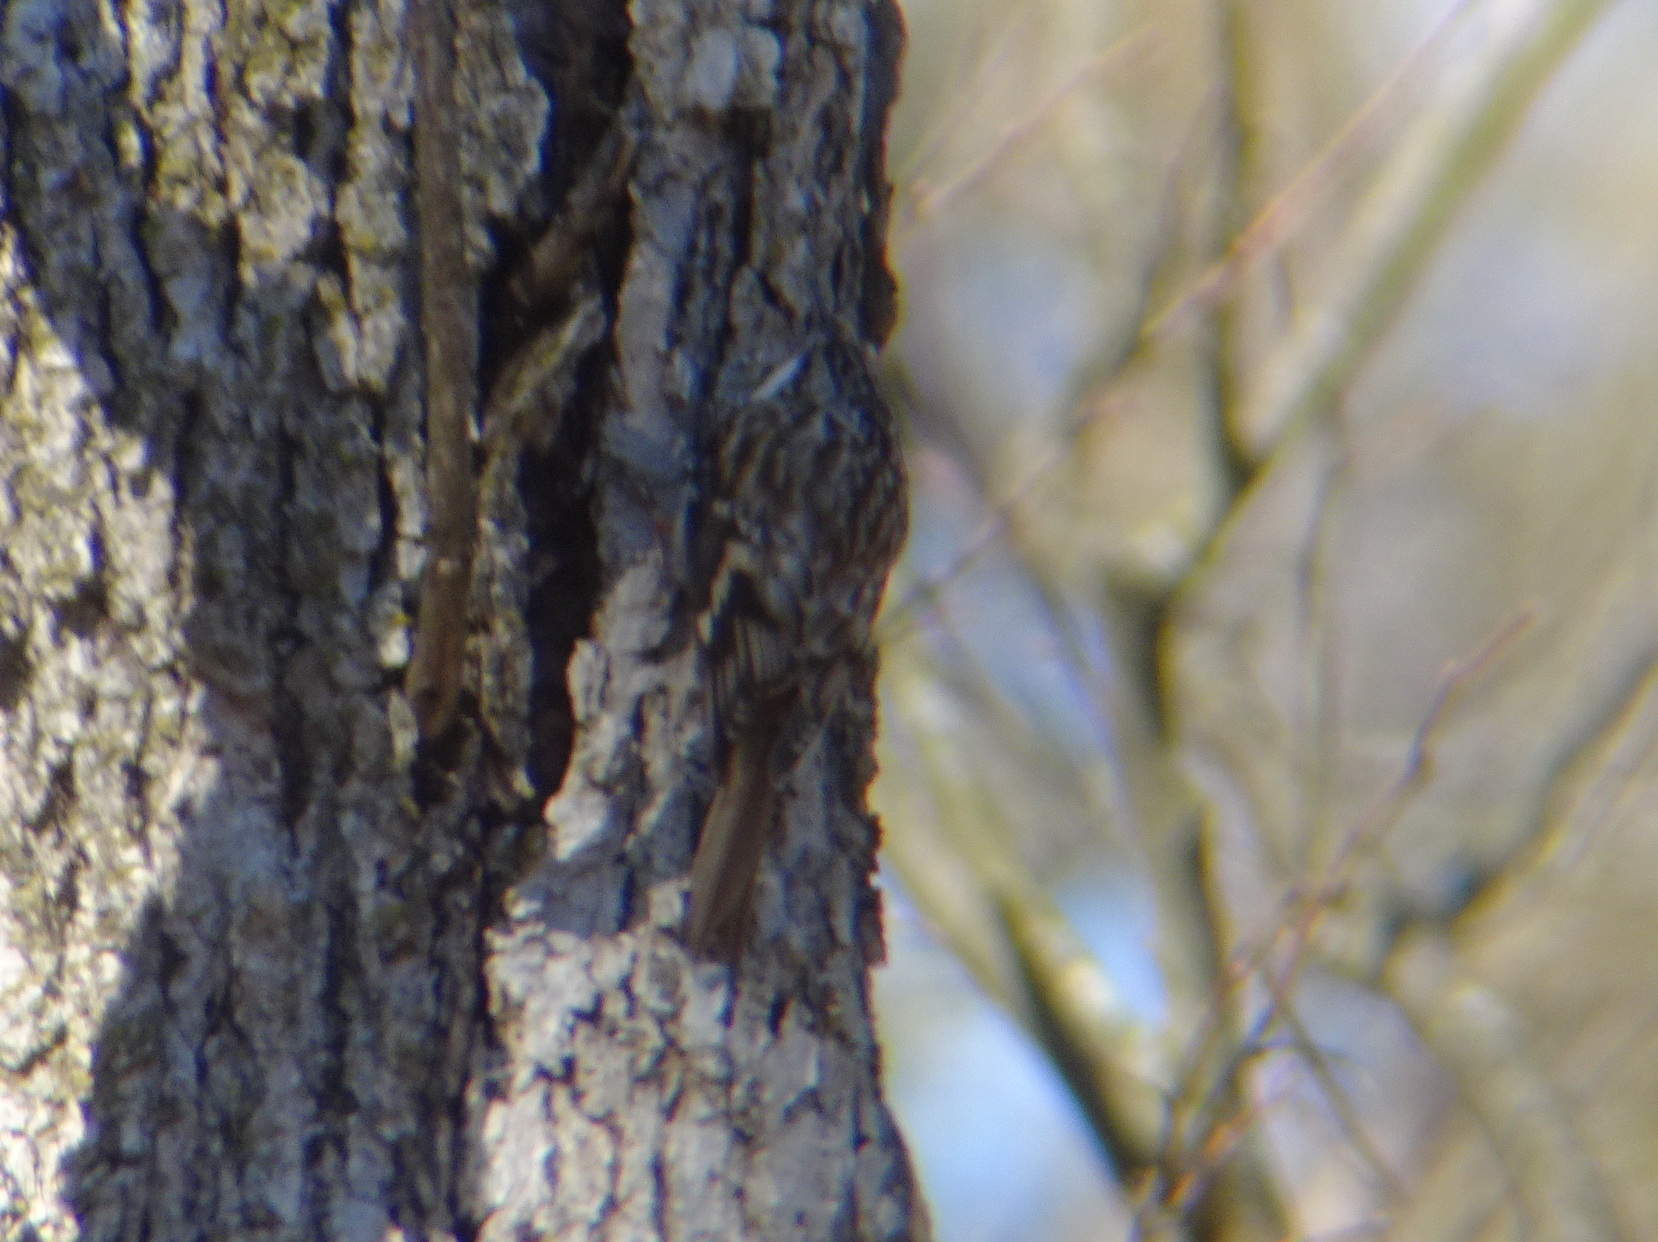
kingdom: Animalia
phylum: Chordata
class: Aves
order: Passeriformes
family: Certhiidae
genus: Certhia
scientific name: Certhia americana
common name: Brown creeper
